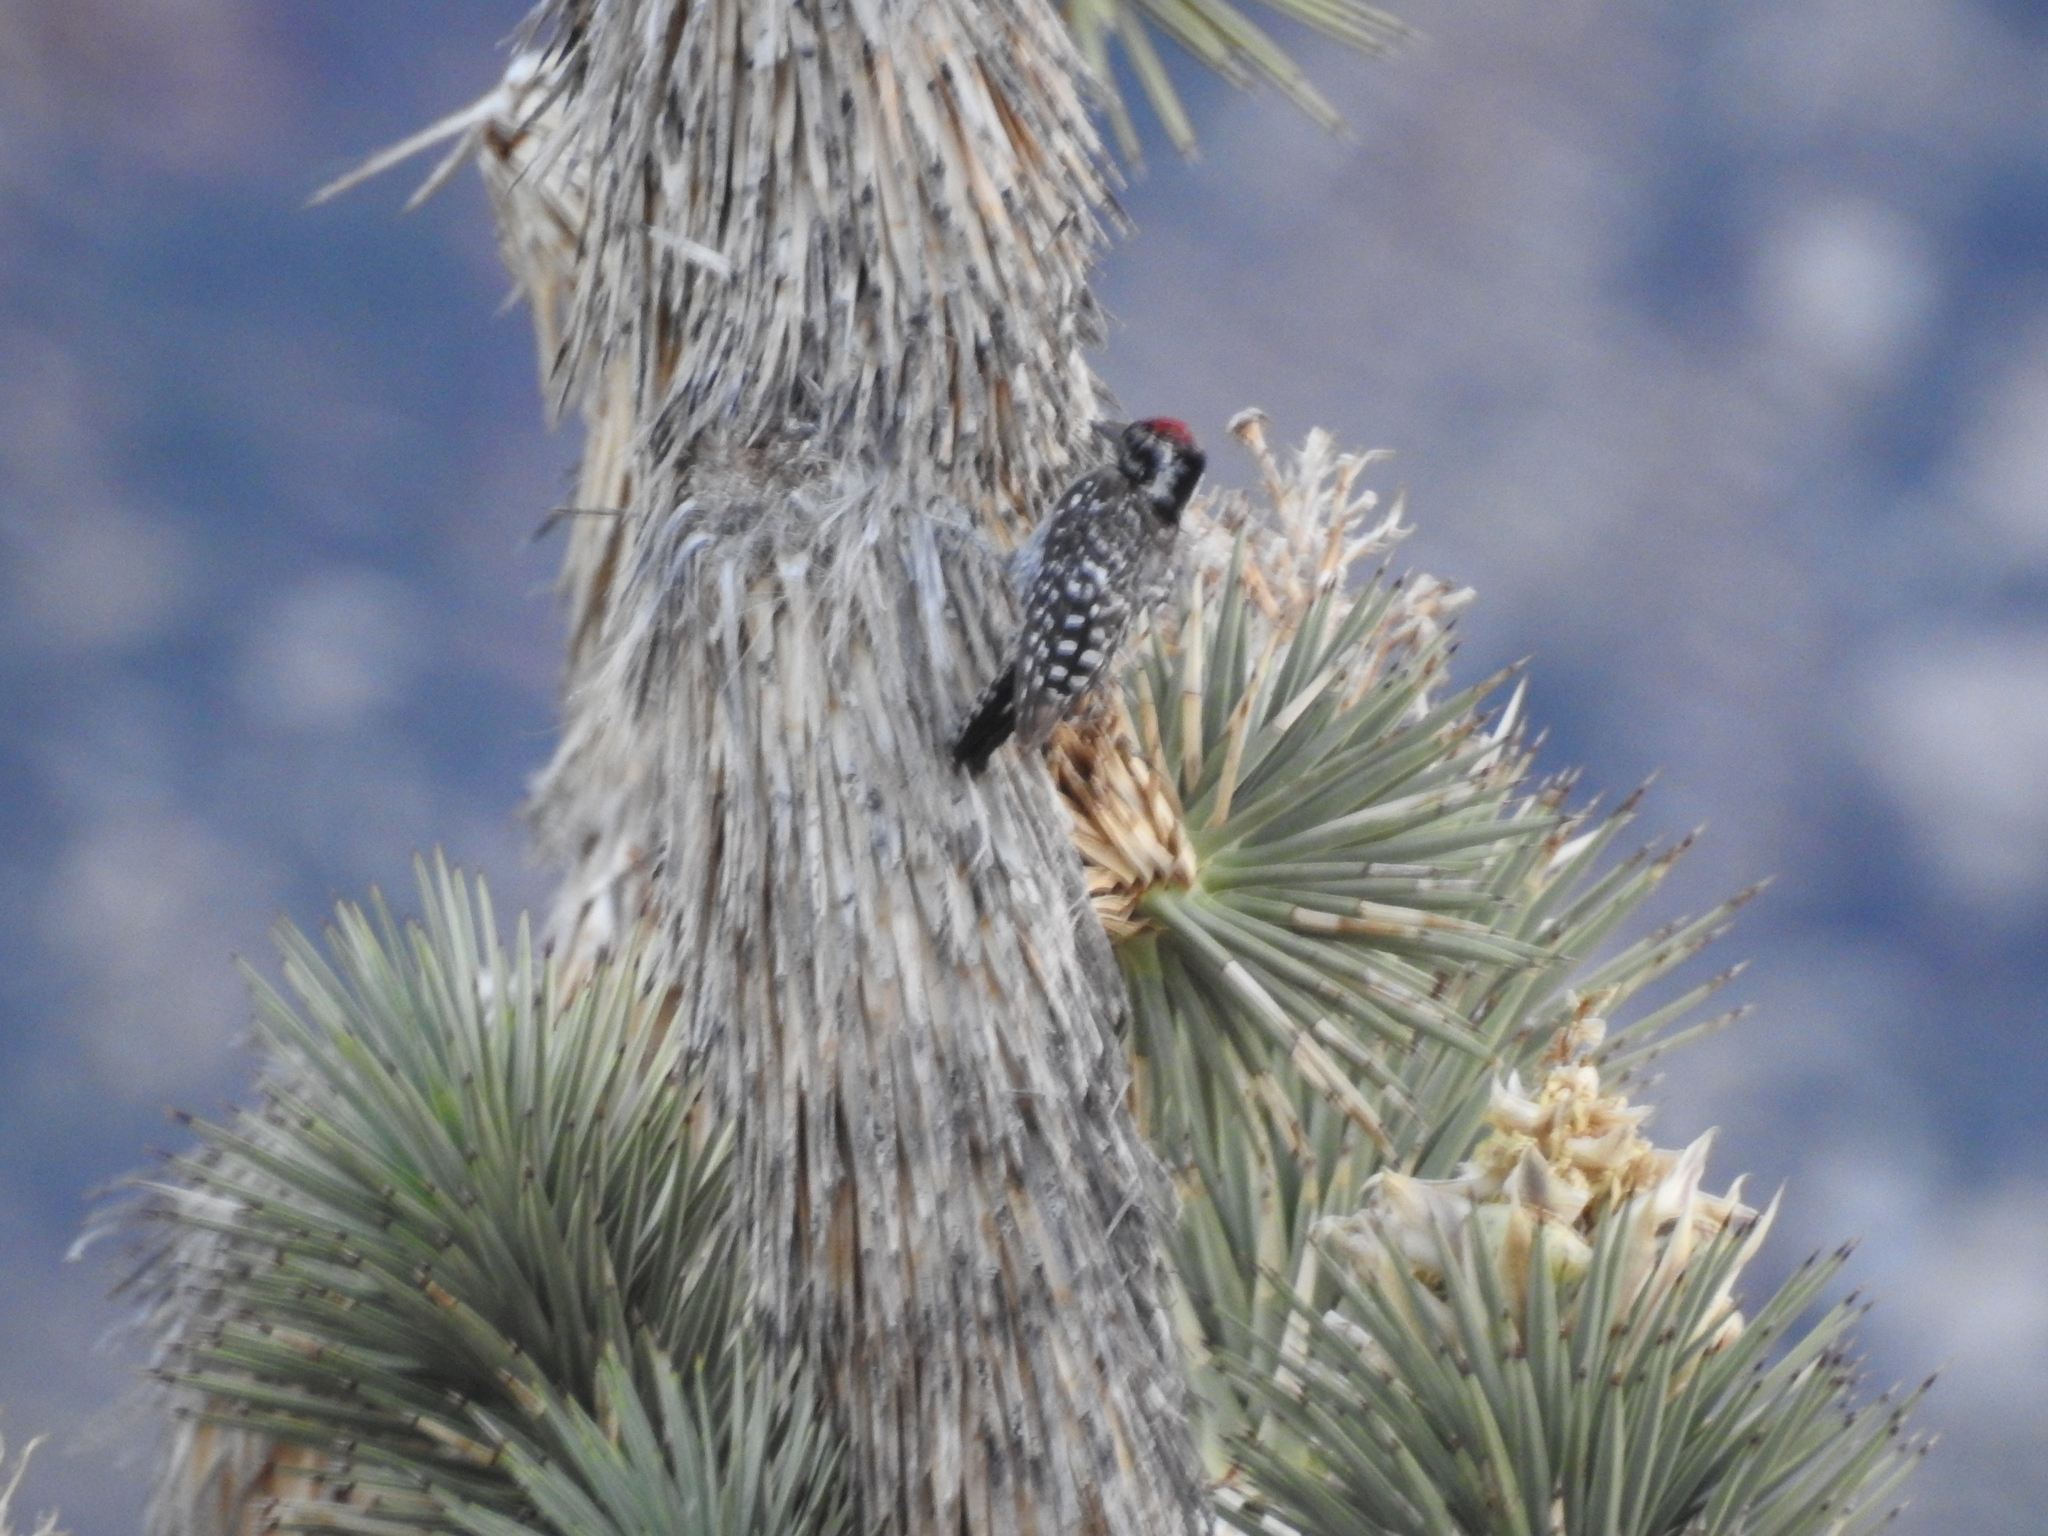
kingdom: Animalia
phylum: Chordata
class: Aves
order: Piciformes
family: Picidae
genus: Dryobates
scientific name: Dryobates scalaris
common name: Ladder-backed woodpecker
